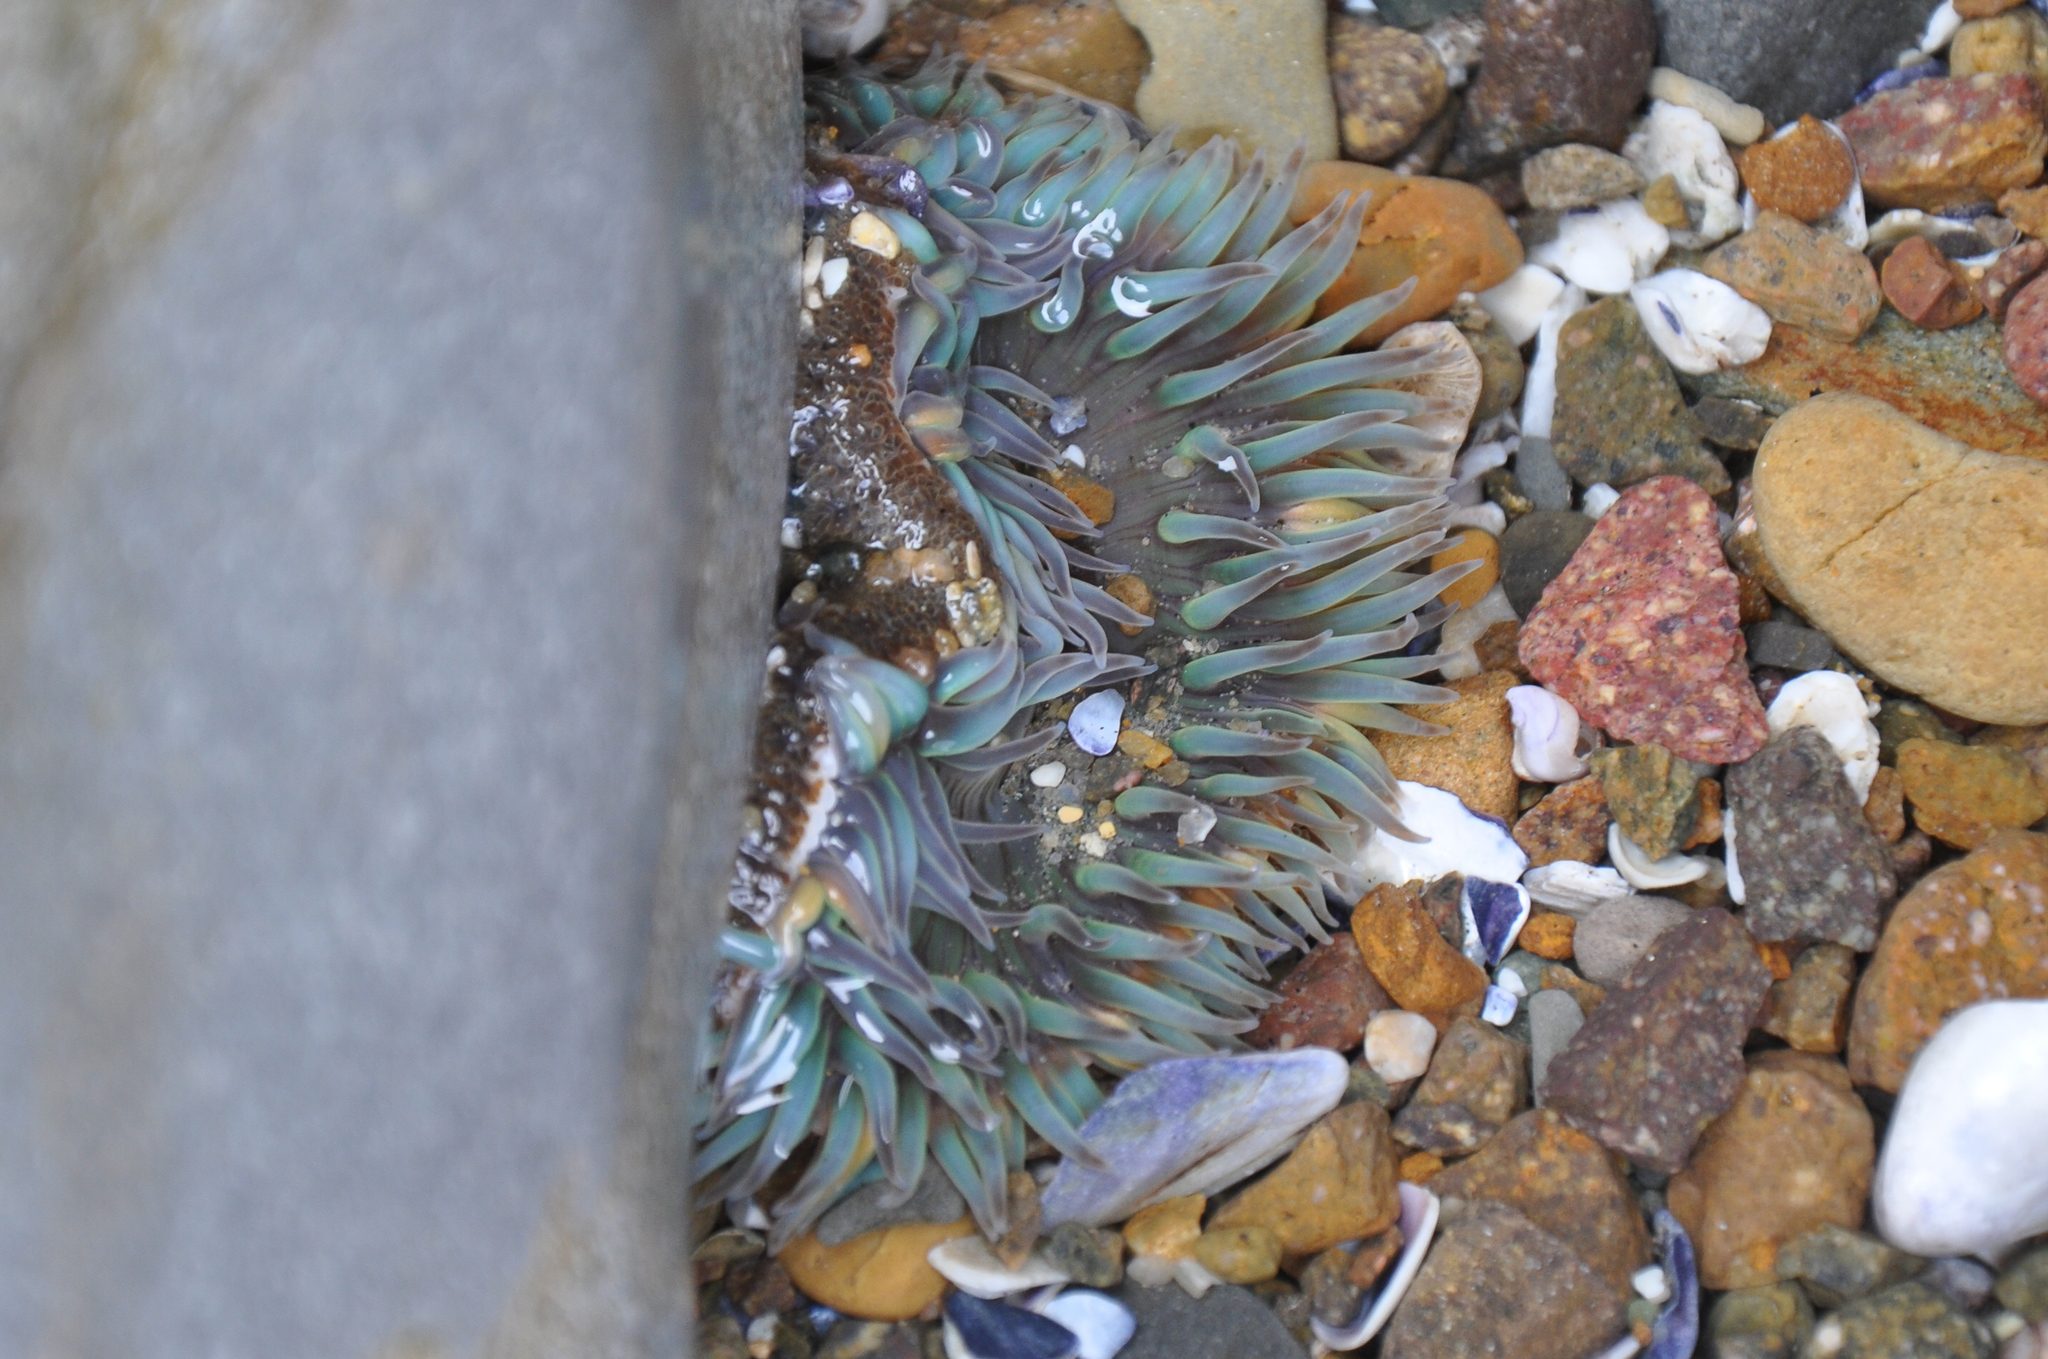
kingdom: Animalia
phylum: Cnidaria
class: Anthozoa
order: Actiniaria
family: Actiniidae
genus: Anthopleura
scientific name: Anthopleura sola
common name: Sun anemone
